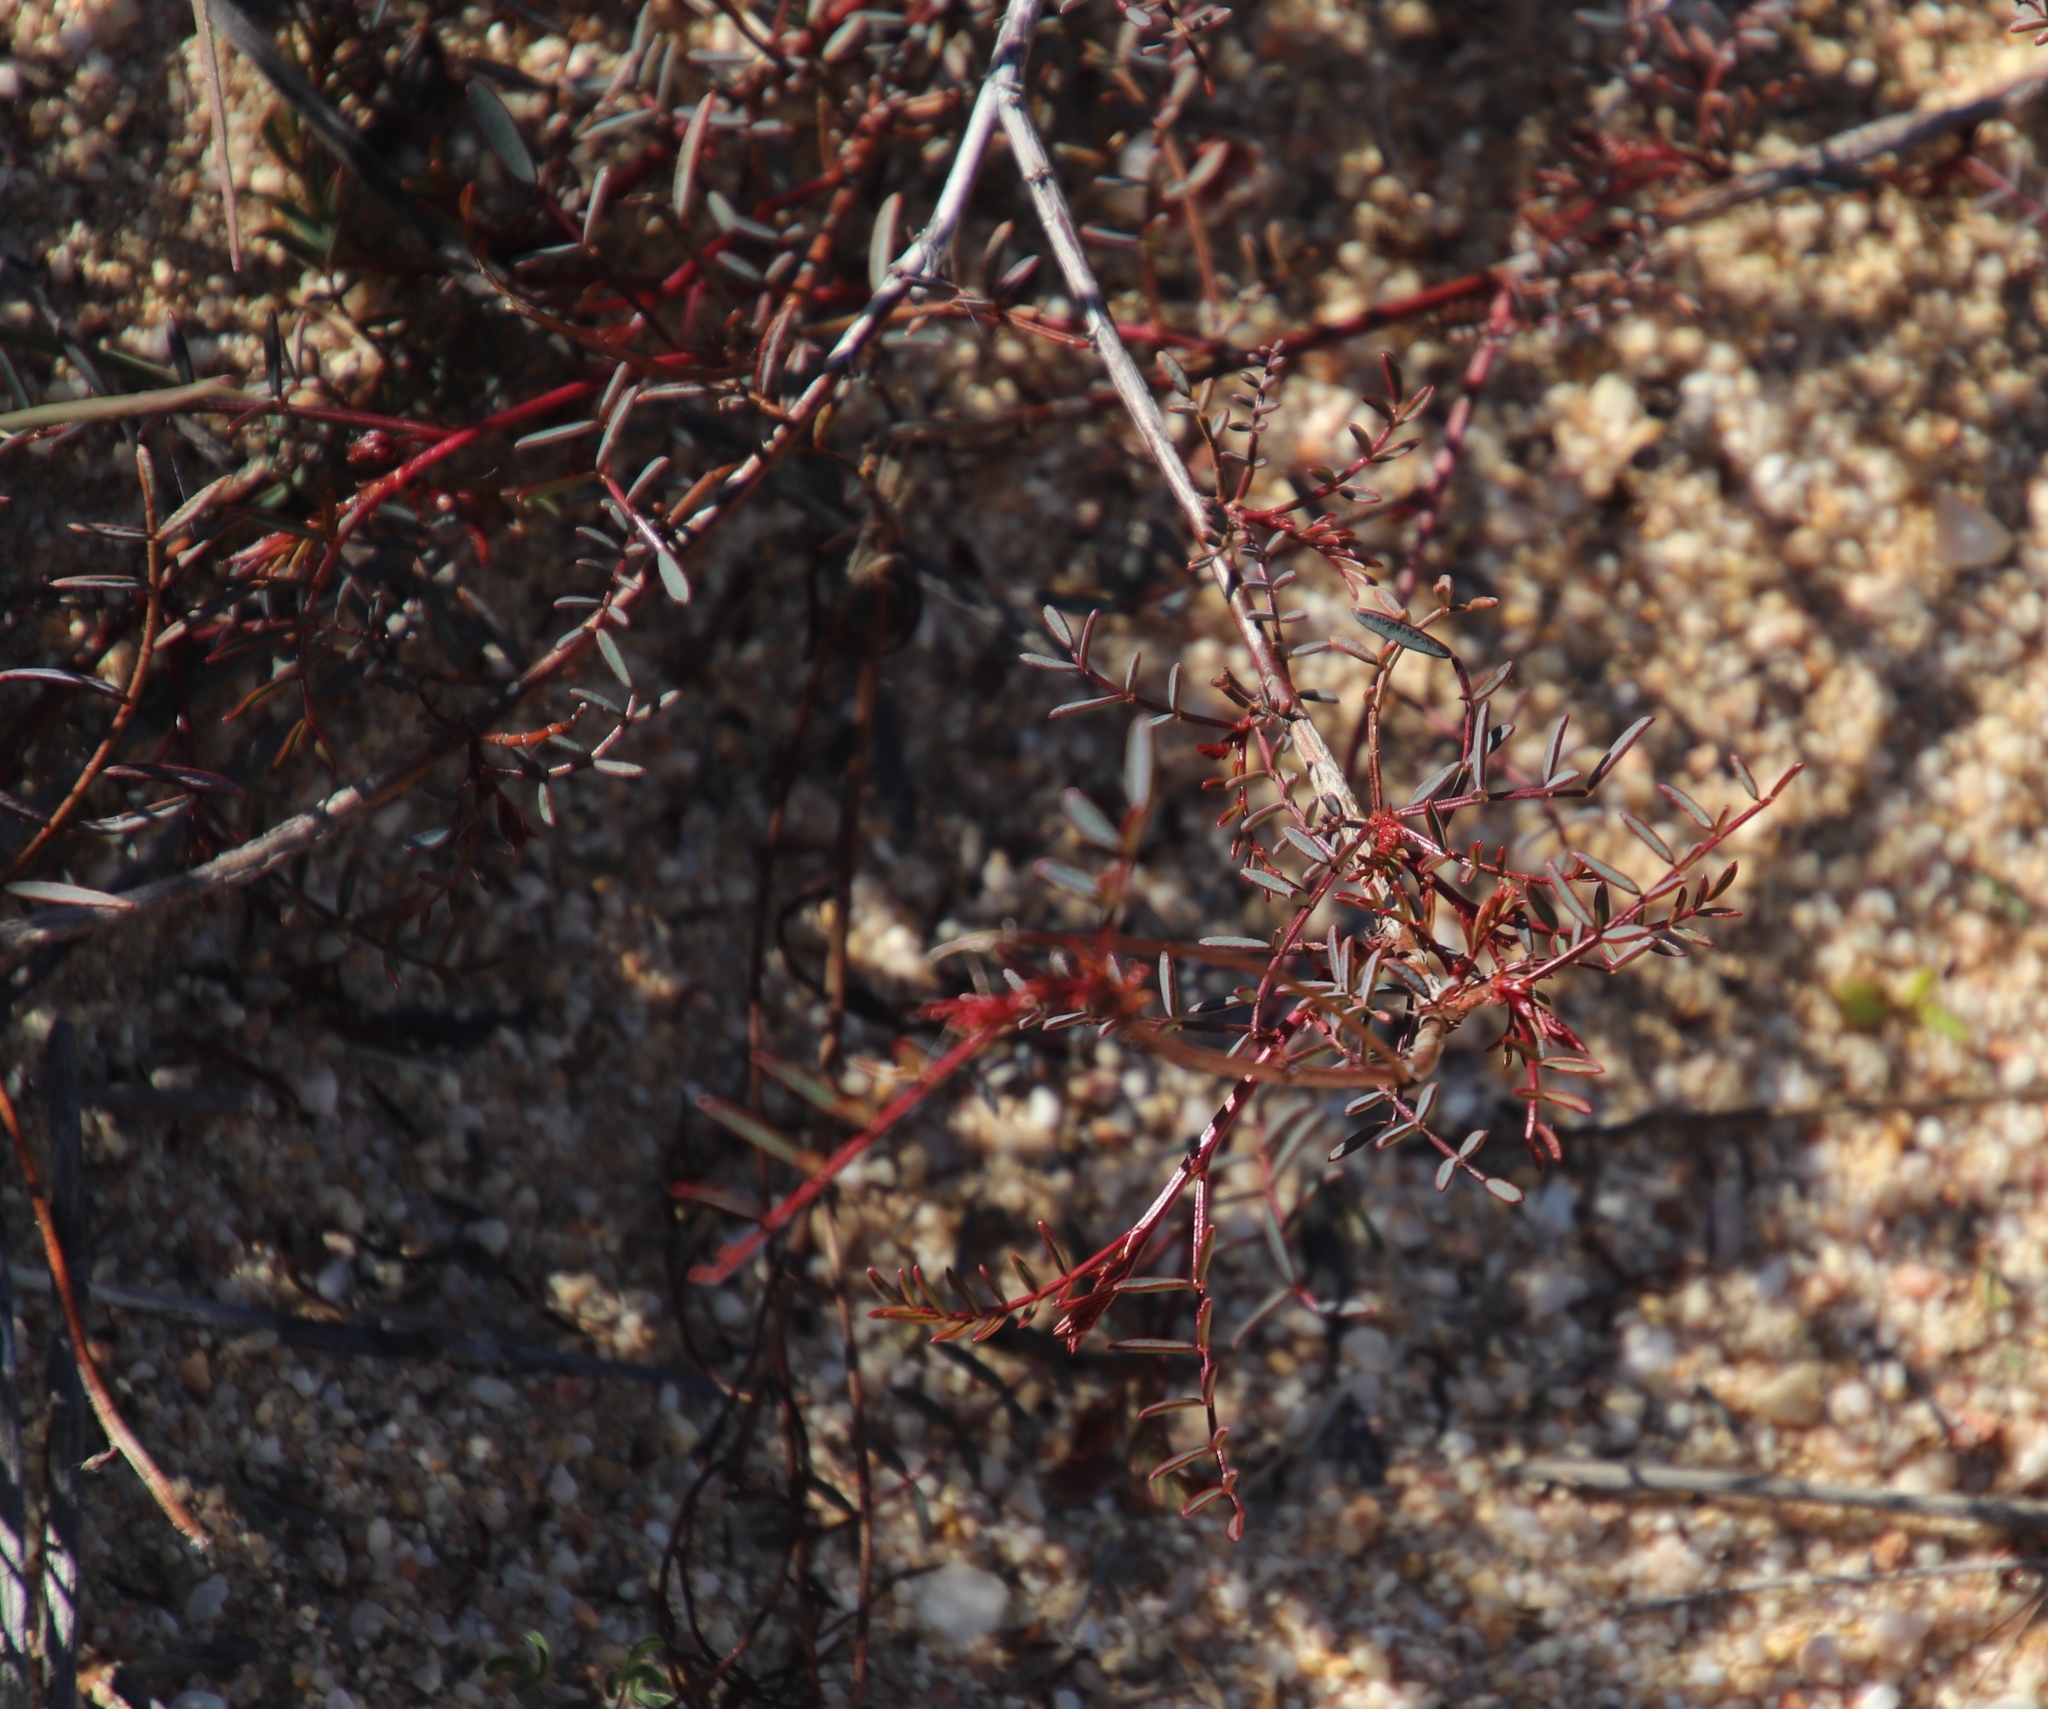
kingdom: Plantae
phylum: Tracheophyta
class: Magnoliopsida
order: Fabales
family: Fabaceae
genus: Indigofera
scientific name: Indigofera humifusa
